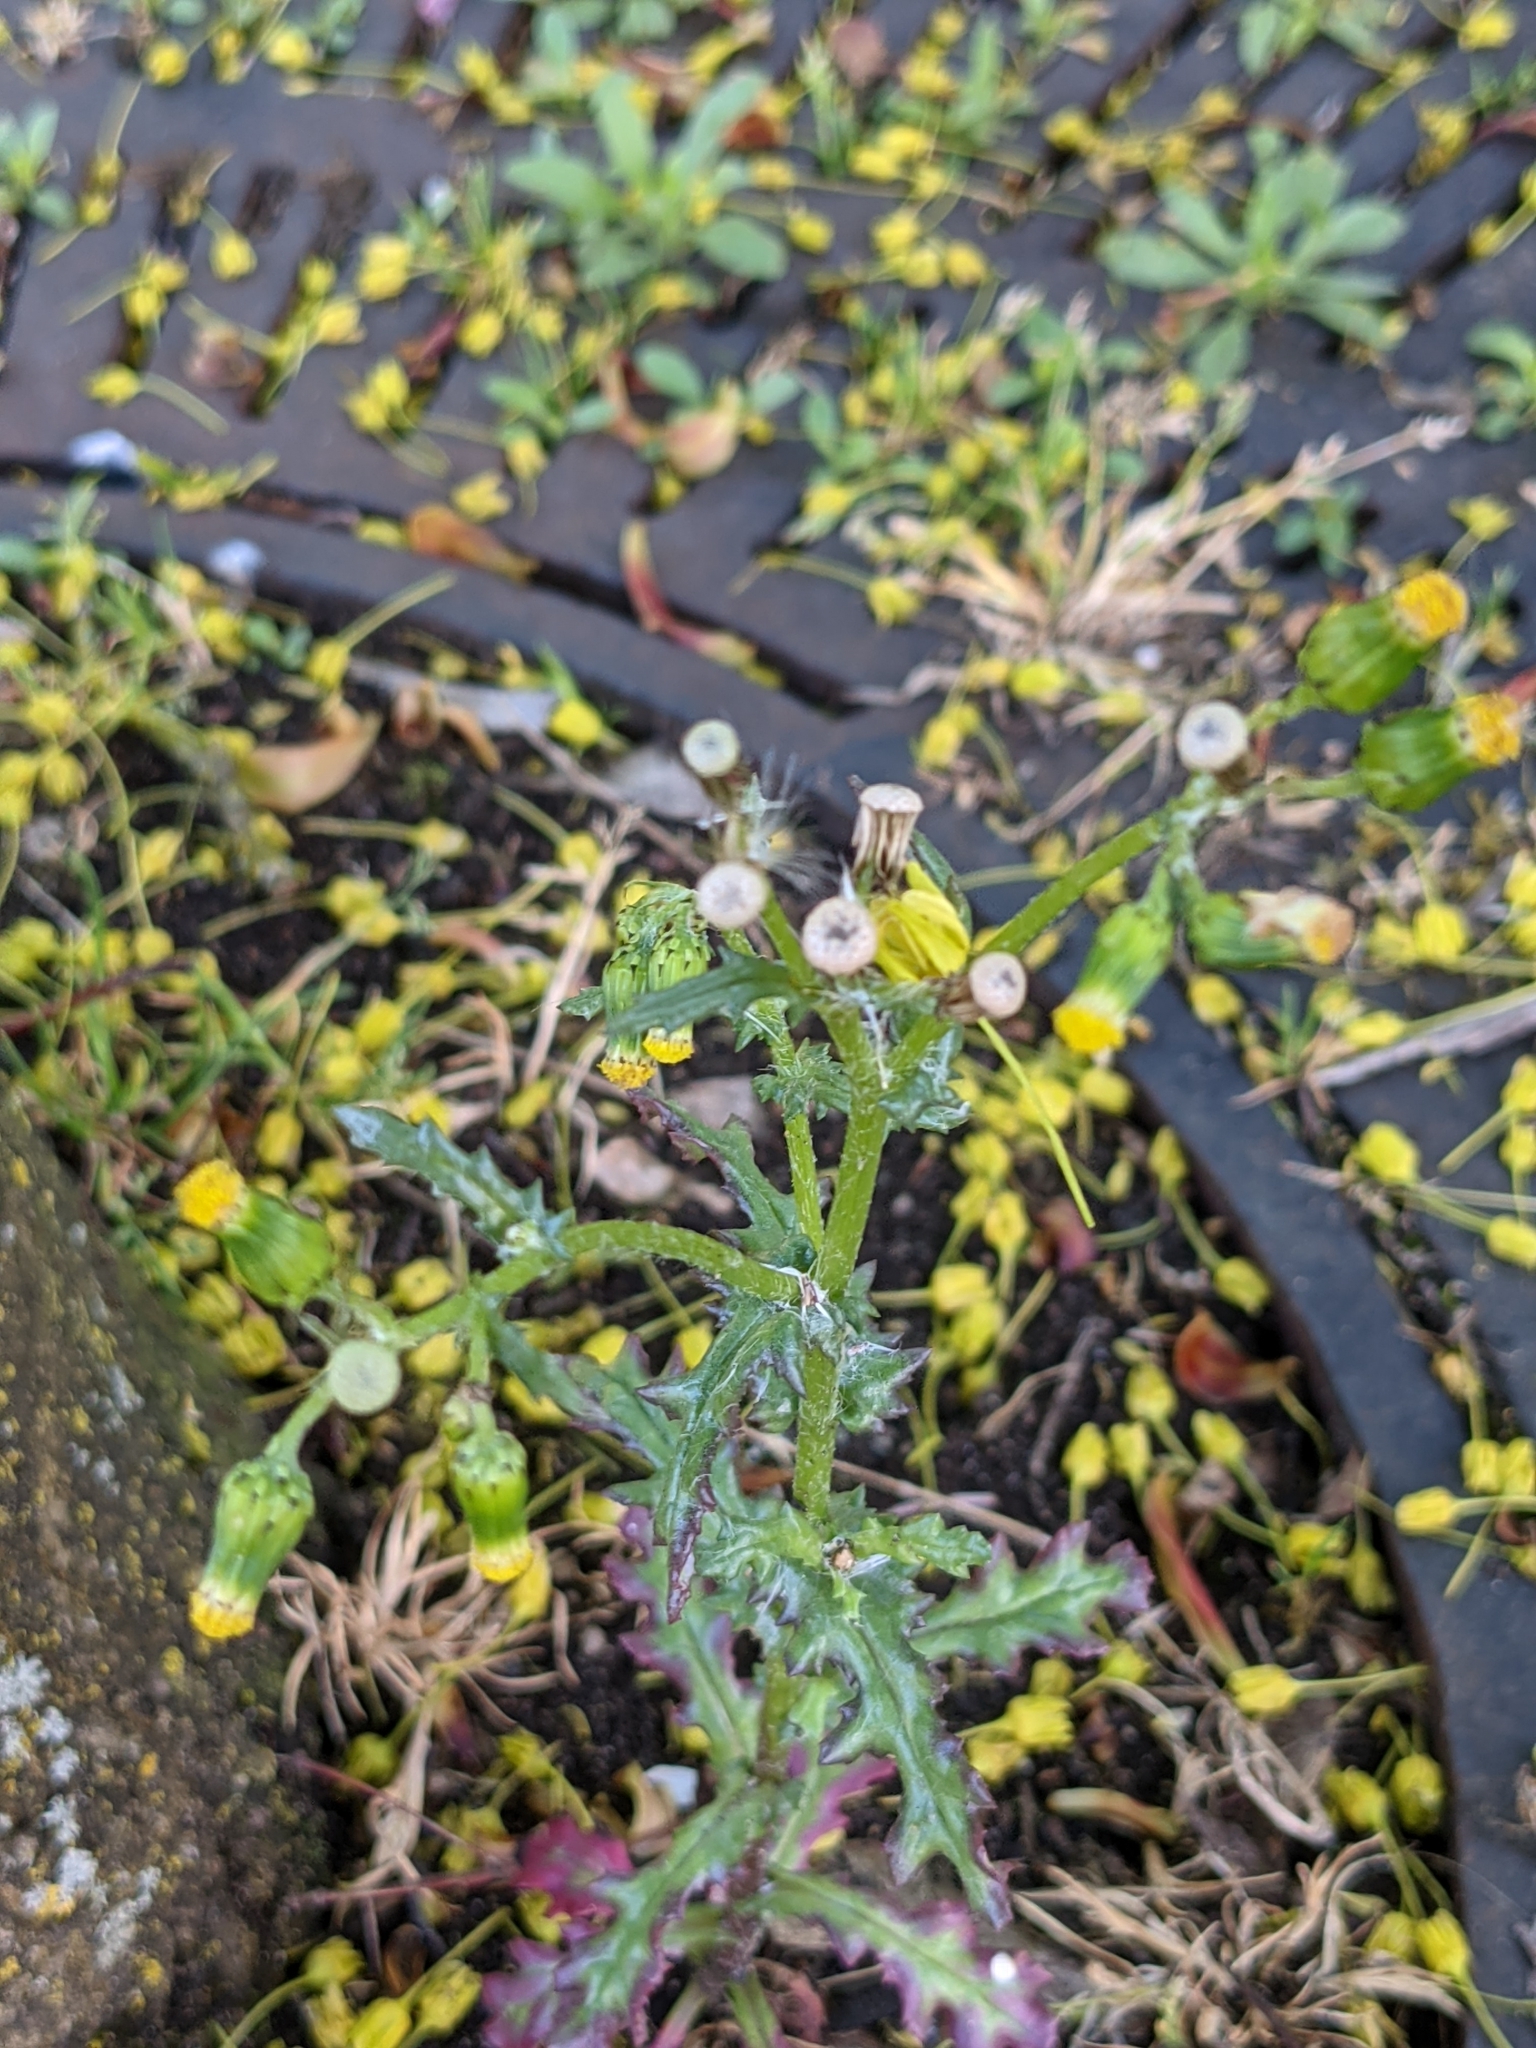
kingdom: Plantae
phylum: Tracheophyta
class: Magnoliopsida
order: Asterales
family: Asteraceae
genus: Senecio
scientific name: Senecio vulgaris
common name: Old-man-in-the-spring
